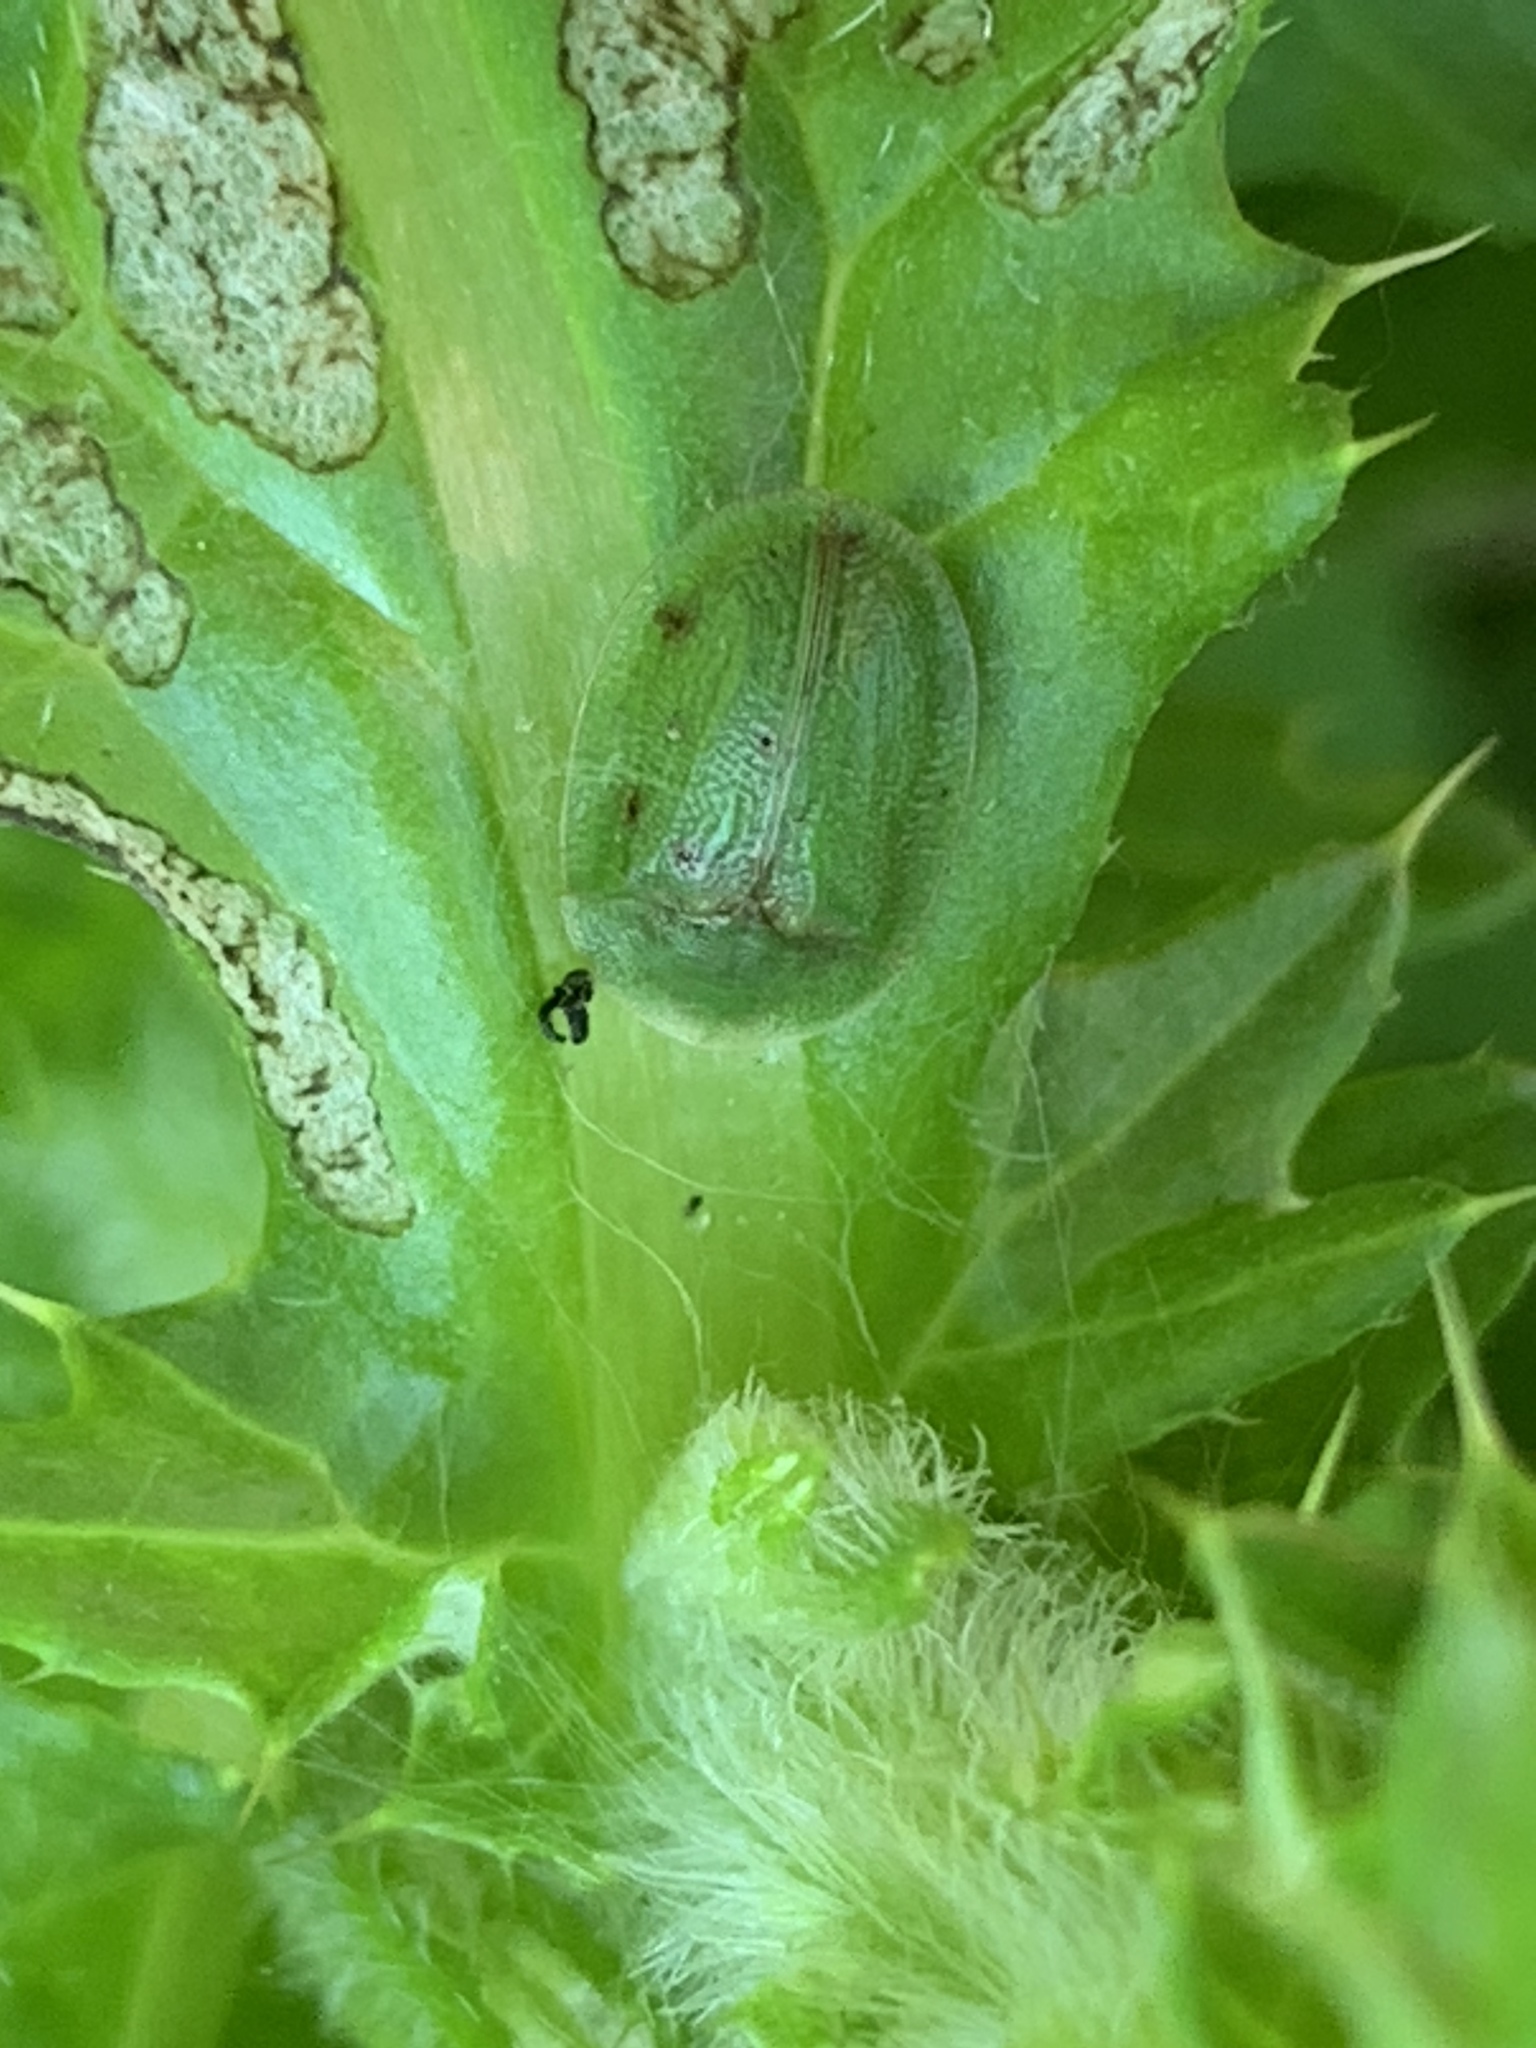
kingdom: Animalia
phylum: Arthropoda
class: Insecta
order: Coleoptera
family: Chrysomelidae
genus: Cassida
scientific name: Cassida rubiginosa
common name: Thistle tortoise beetle
